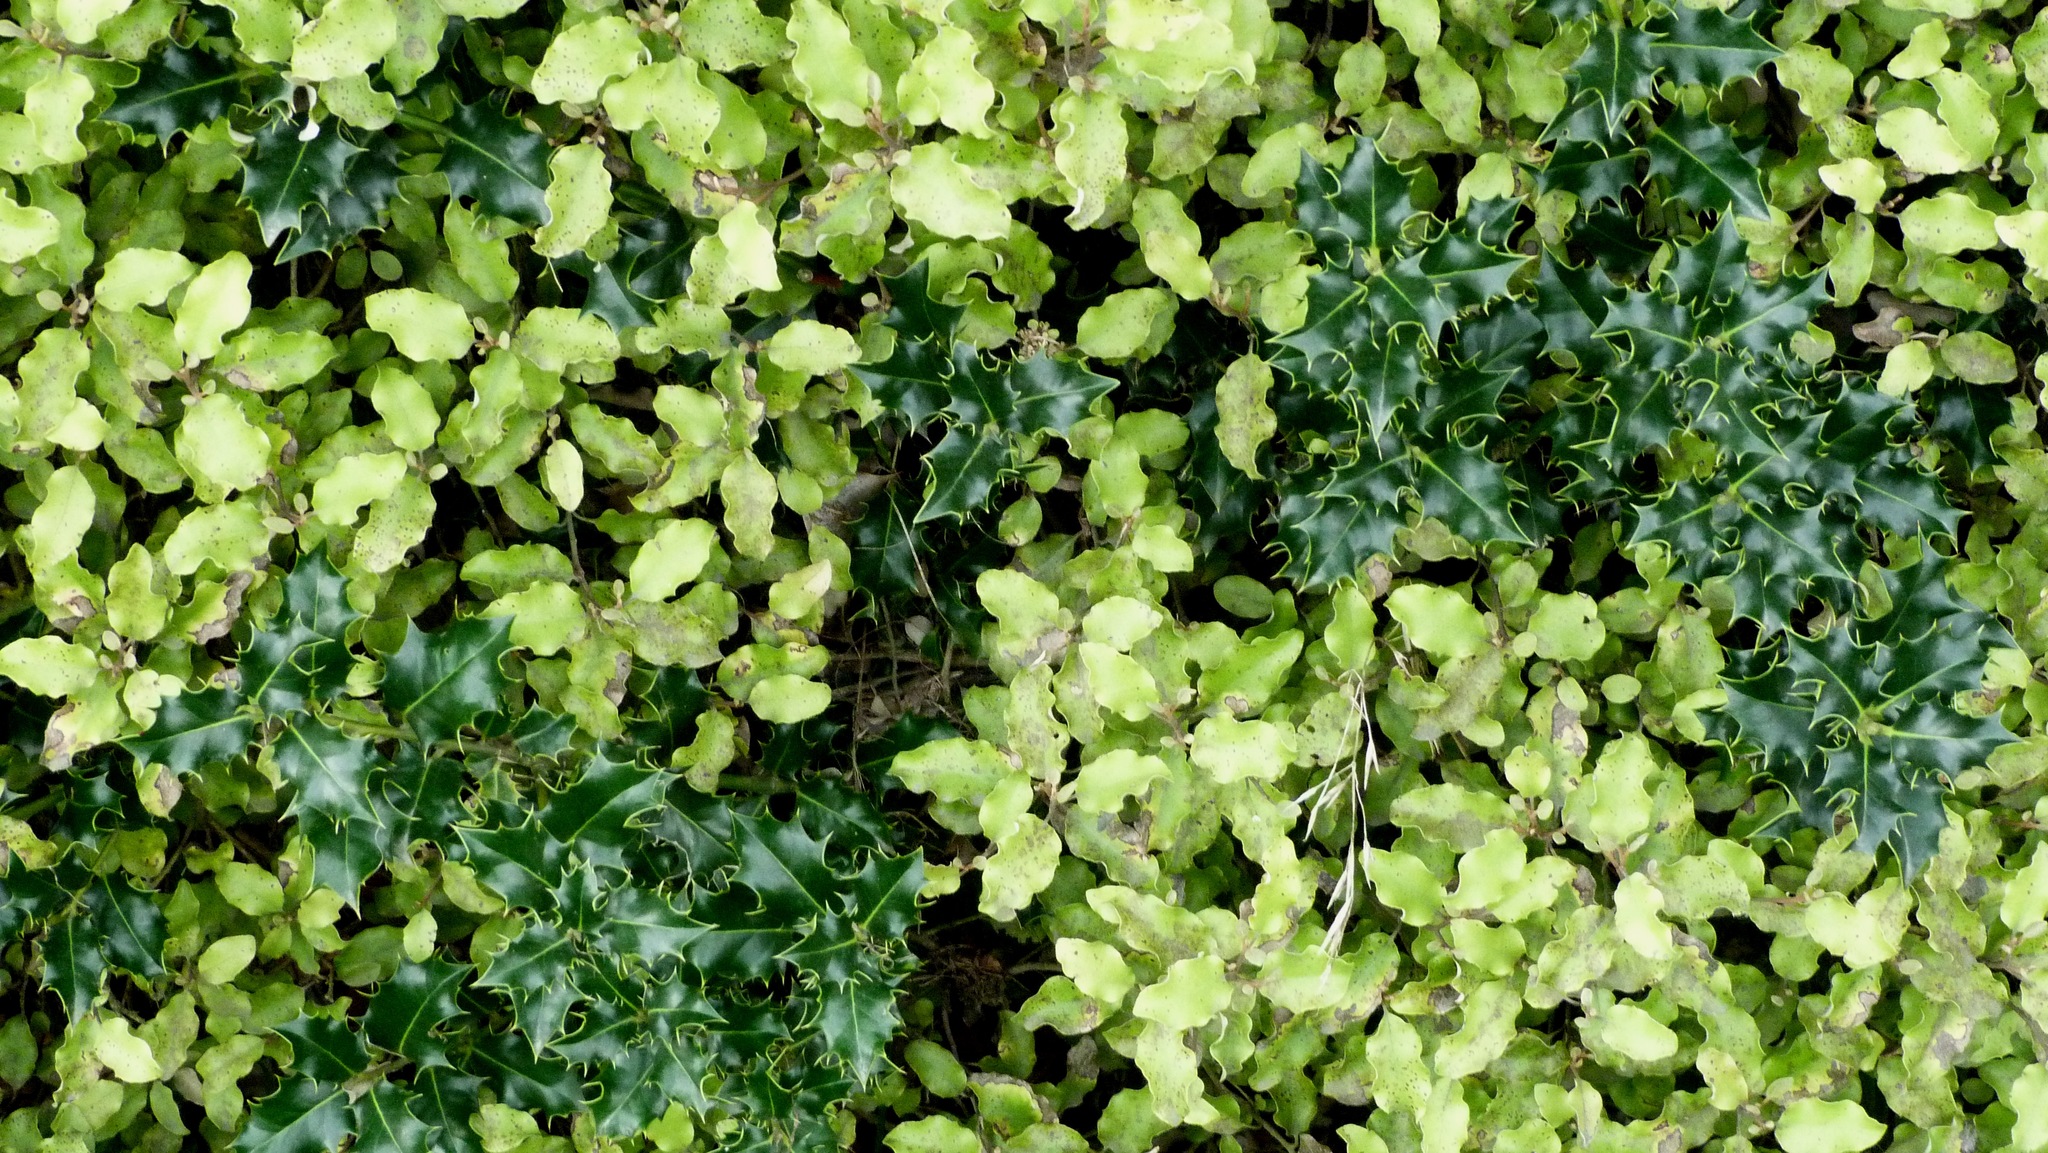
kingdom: Plantae
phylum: Tracheophyta
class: Magnoliopsida
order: Aquifoliales
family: Aquifoliaceae
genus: Ilex
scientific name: Ilex aquifolium
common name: English holly
